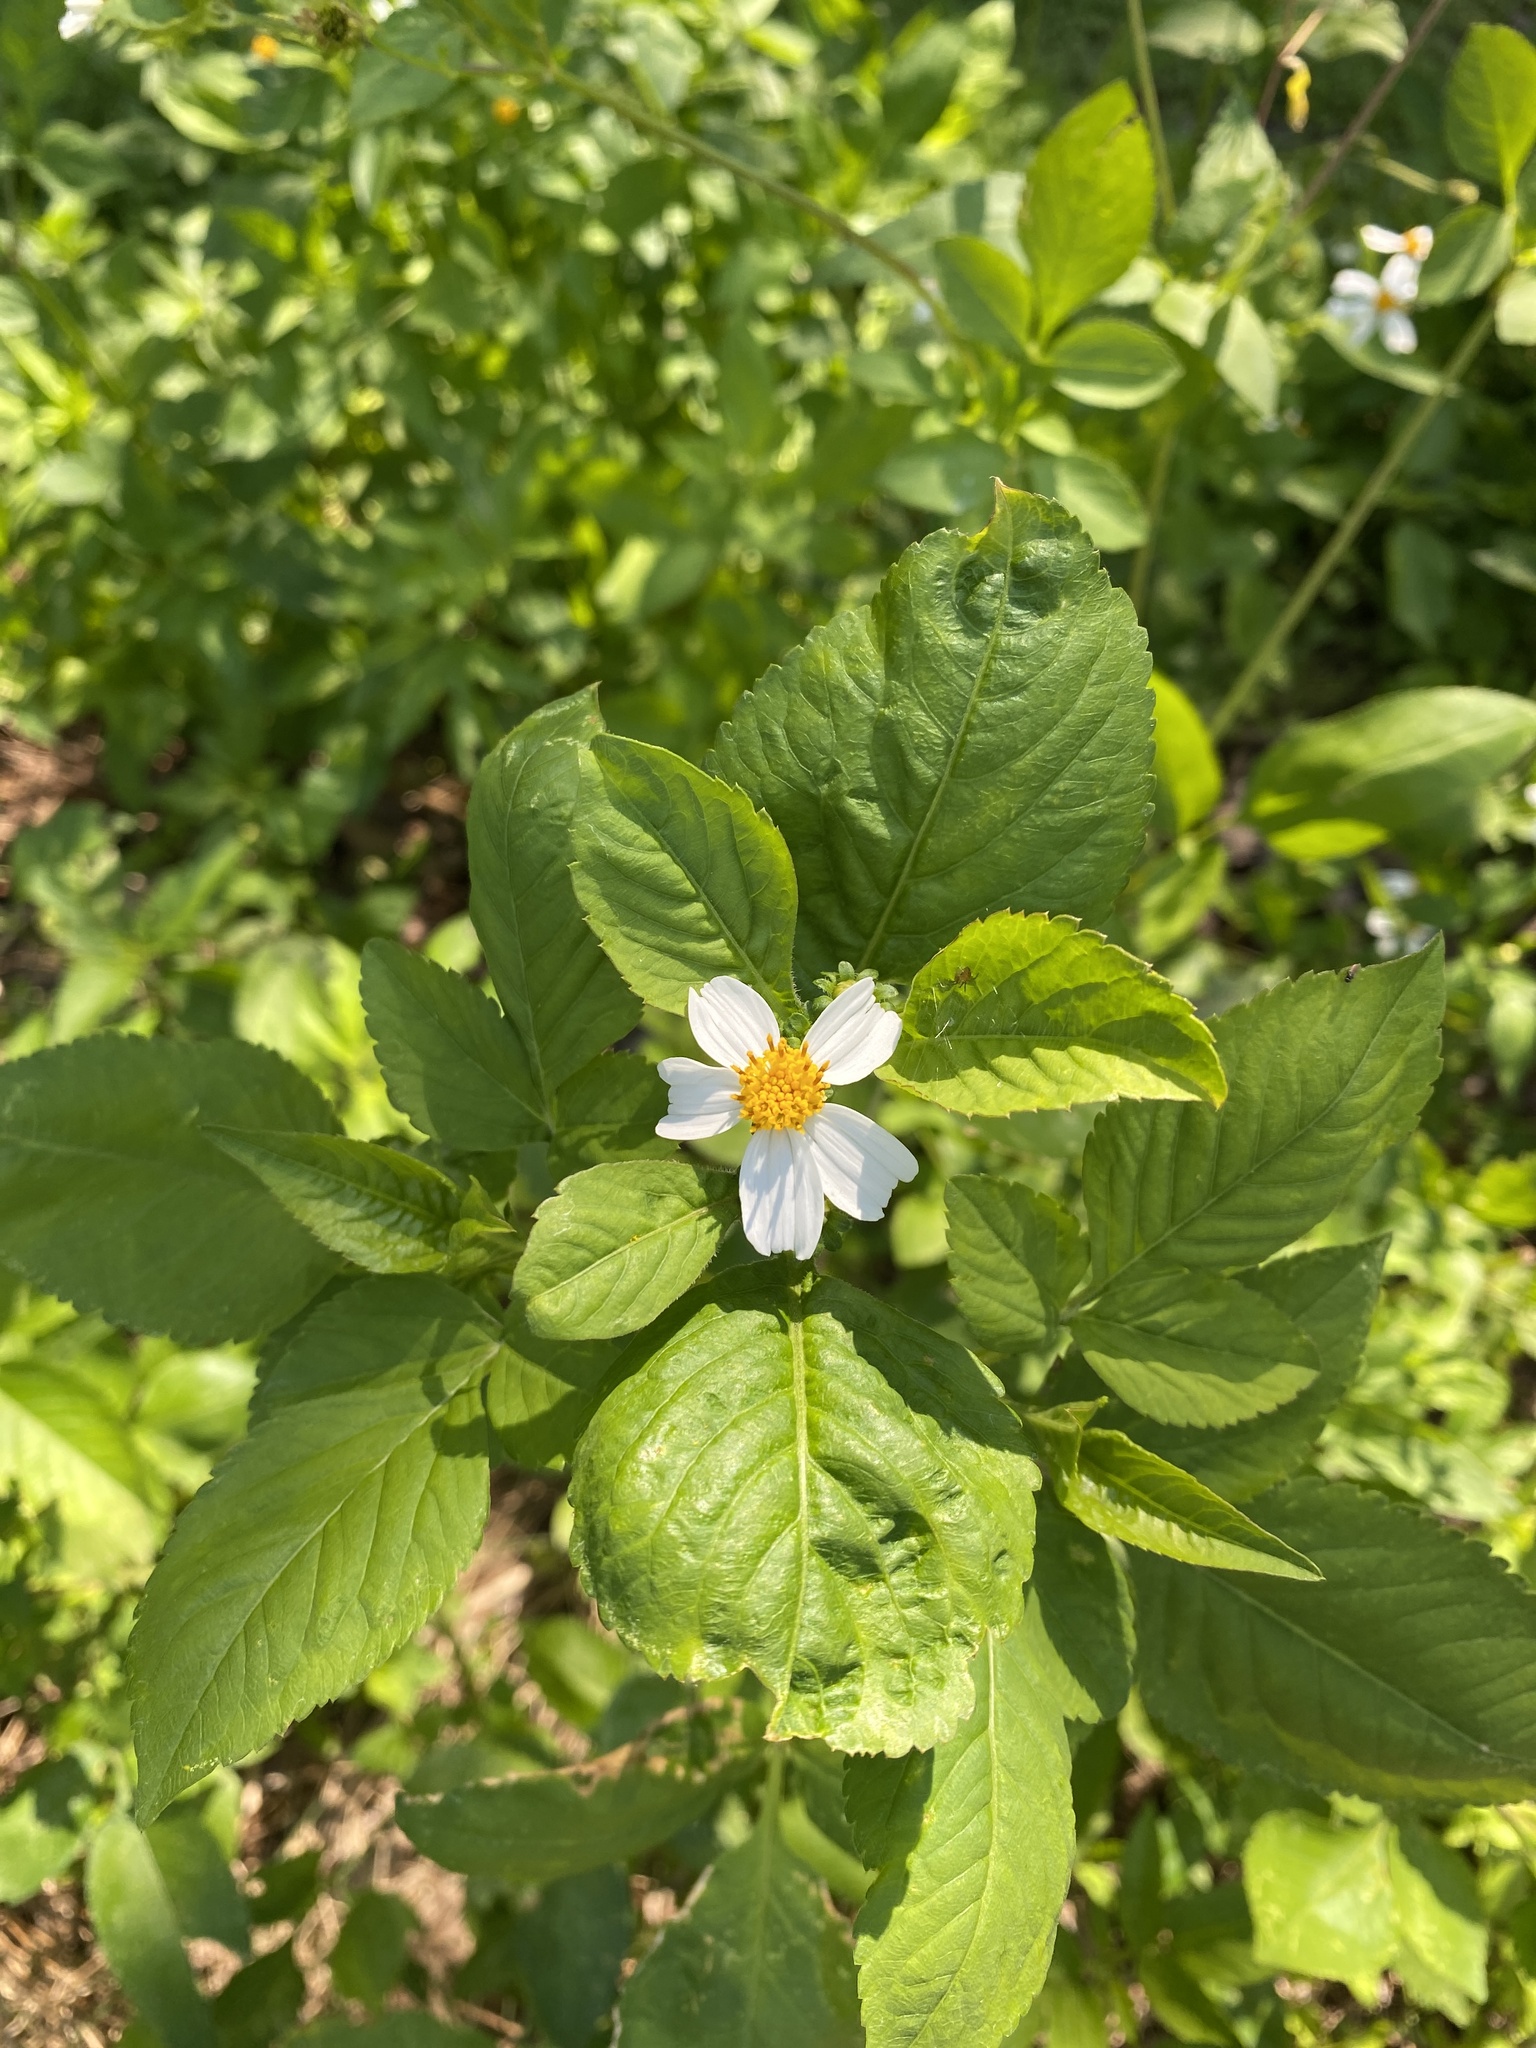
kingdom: Plantae
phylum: Tracheophyta
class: Magnoliopsida
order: Asterales
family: Asteraceae
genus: Bidens
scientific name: Bidens alba
